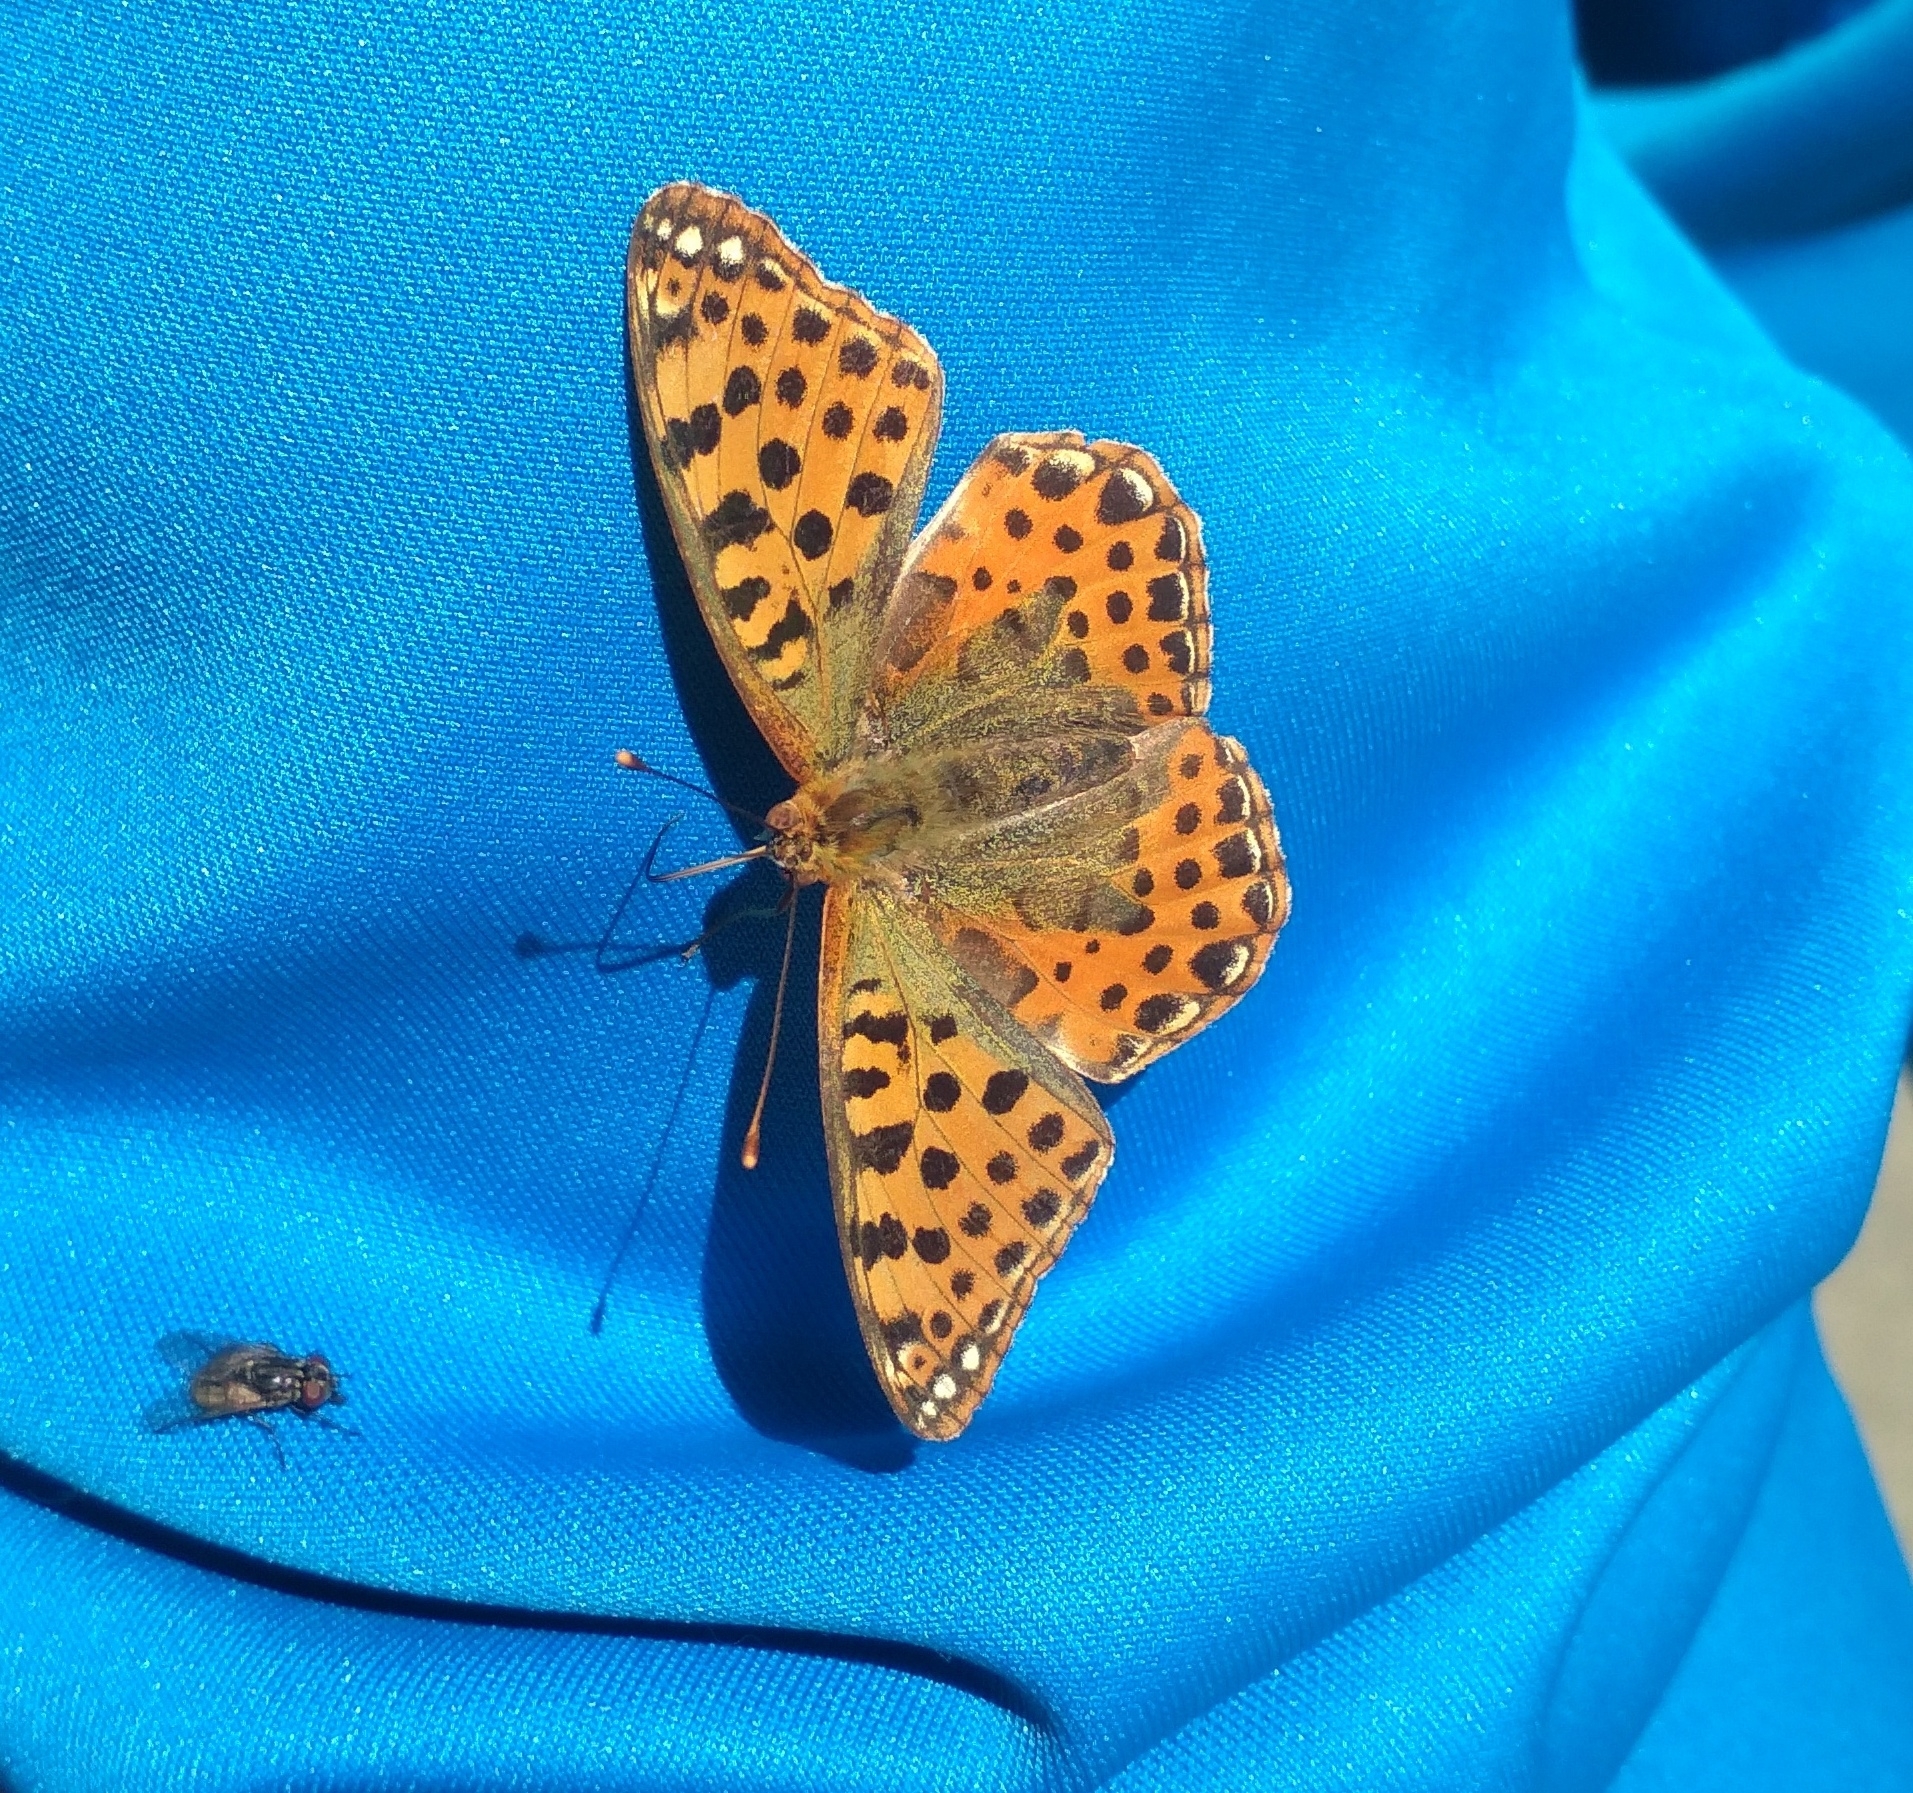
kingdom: Animalia
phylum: Arthropoda
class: Insecta
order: Lepidoptera
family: Nymphalidae
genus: Issoria
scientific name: Issoria lathonia
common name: Queen of spain fritillary
